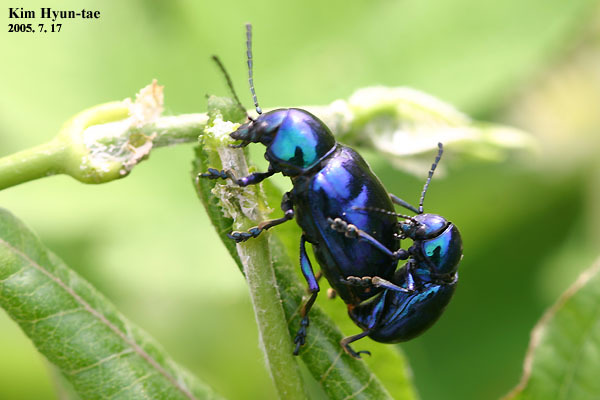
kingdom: Animalia
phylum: Arthropoda
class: Insecta
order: Coleoptera
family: Chrysomelidae
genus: Chrysochus
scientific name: Chrysochus chinensis
